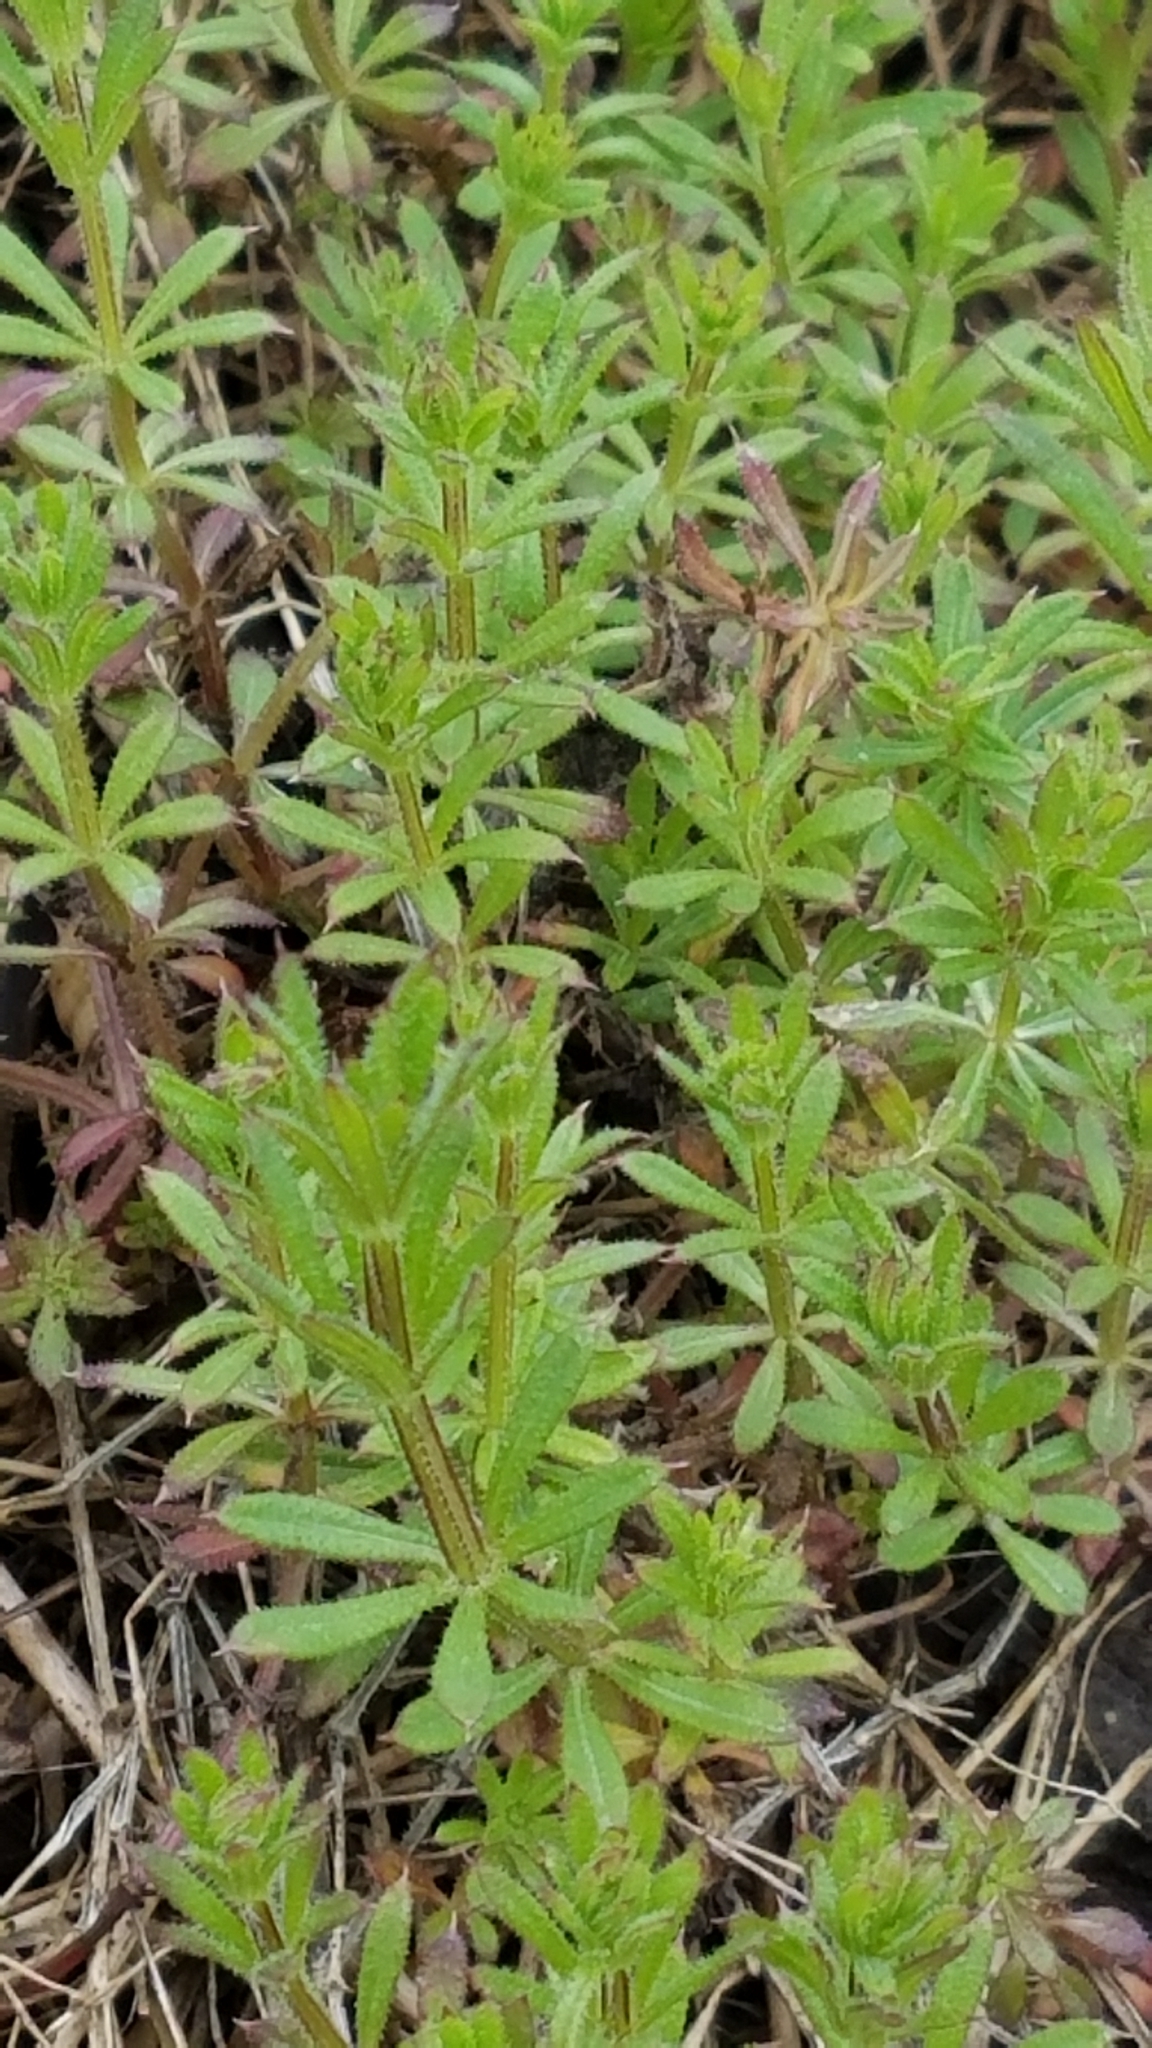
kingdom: Plantae
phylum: Tracheophyta
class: Magnoliopsida
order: Gentianales
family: Rubiaceae
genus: Galium
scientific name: Galium aparine
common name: Cleavers
